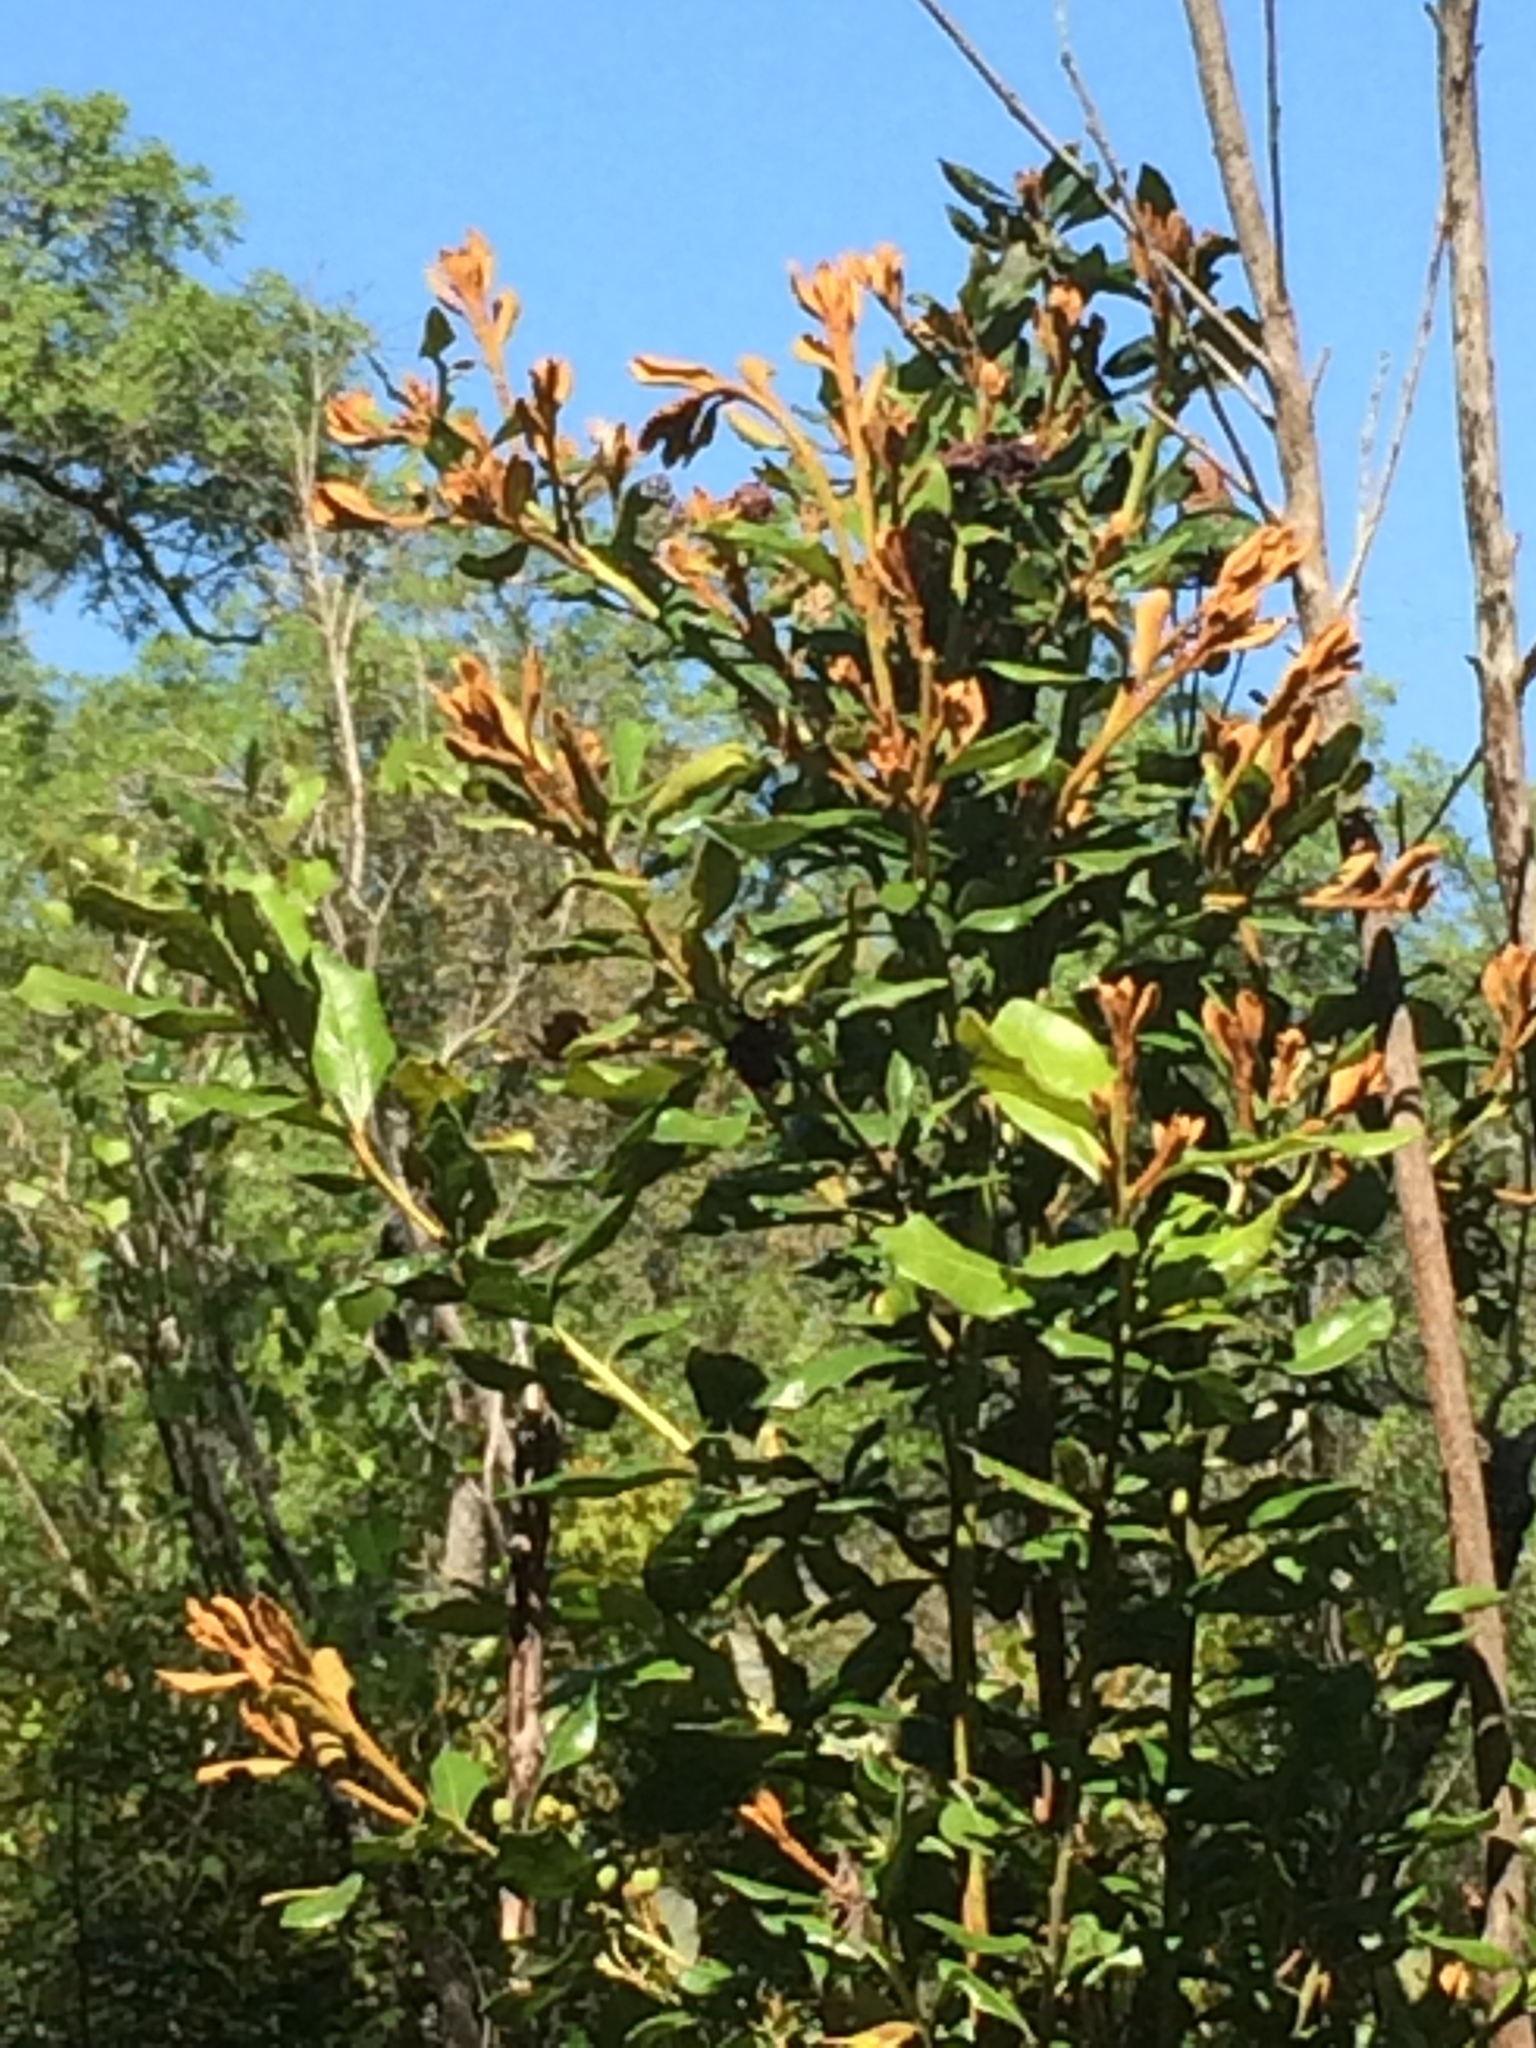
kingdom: Plantae
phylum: Tracheophyta
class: Magnoliopsida
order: Ericales
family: Ericaceae
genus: Lyonia
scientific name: Lyonia ferruginea
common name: Rusty lyonia
